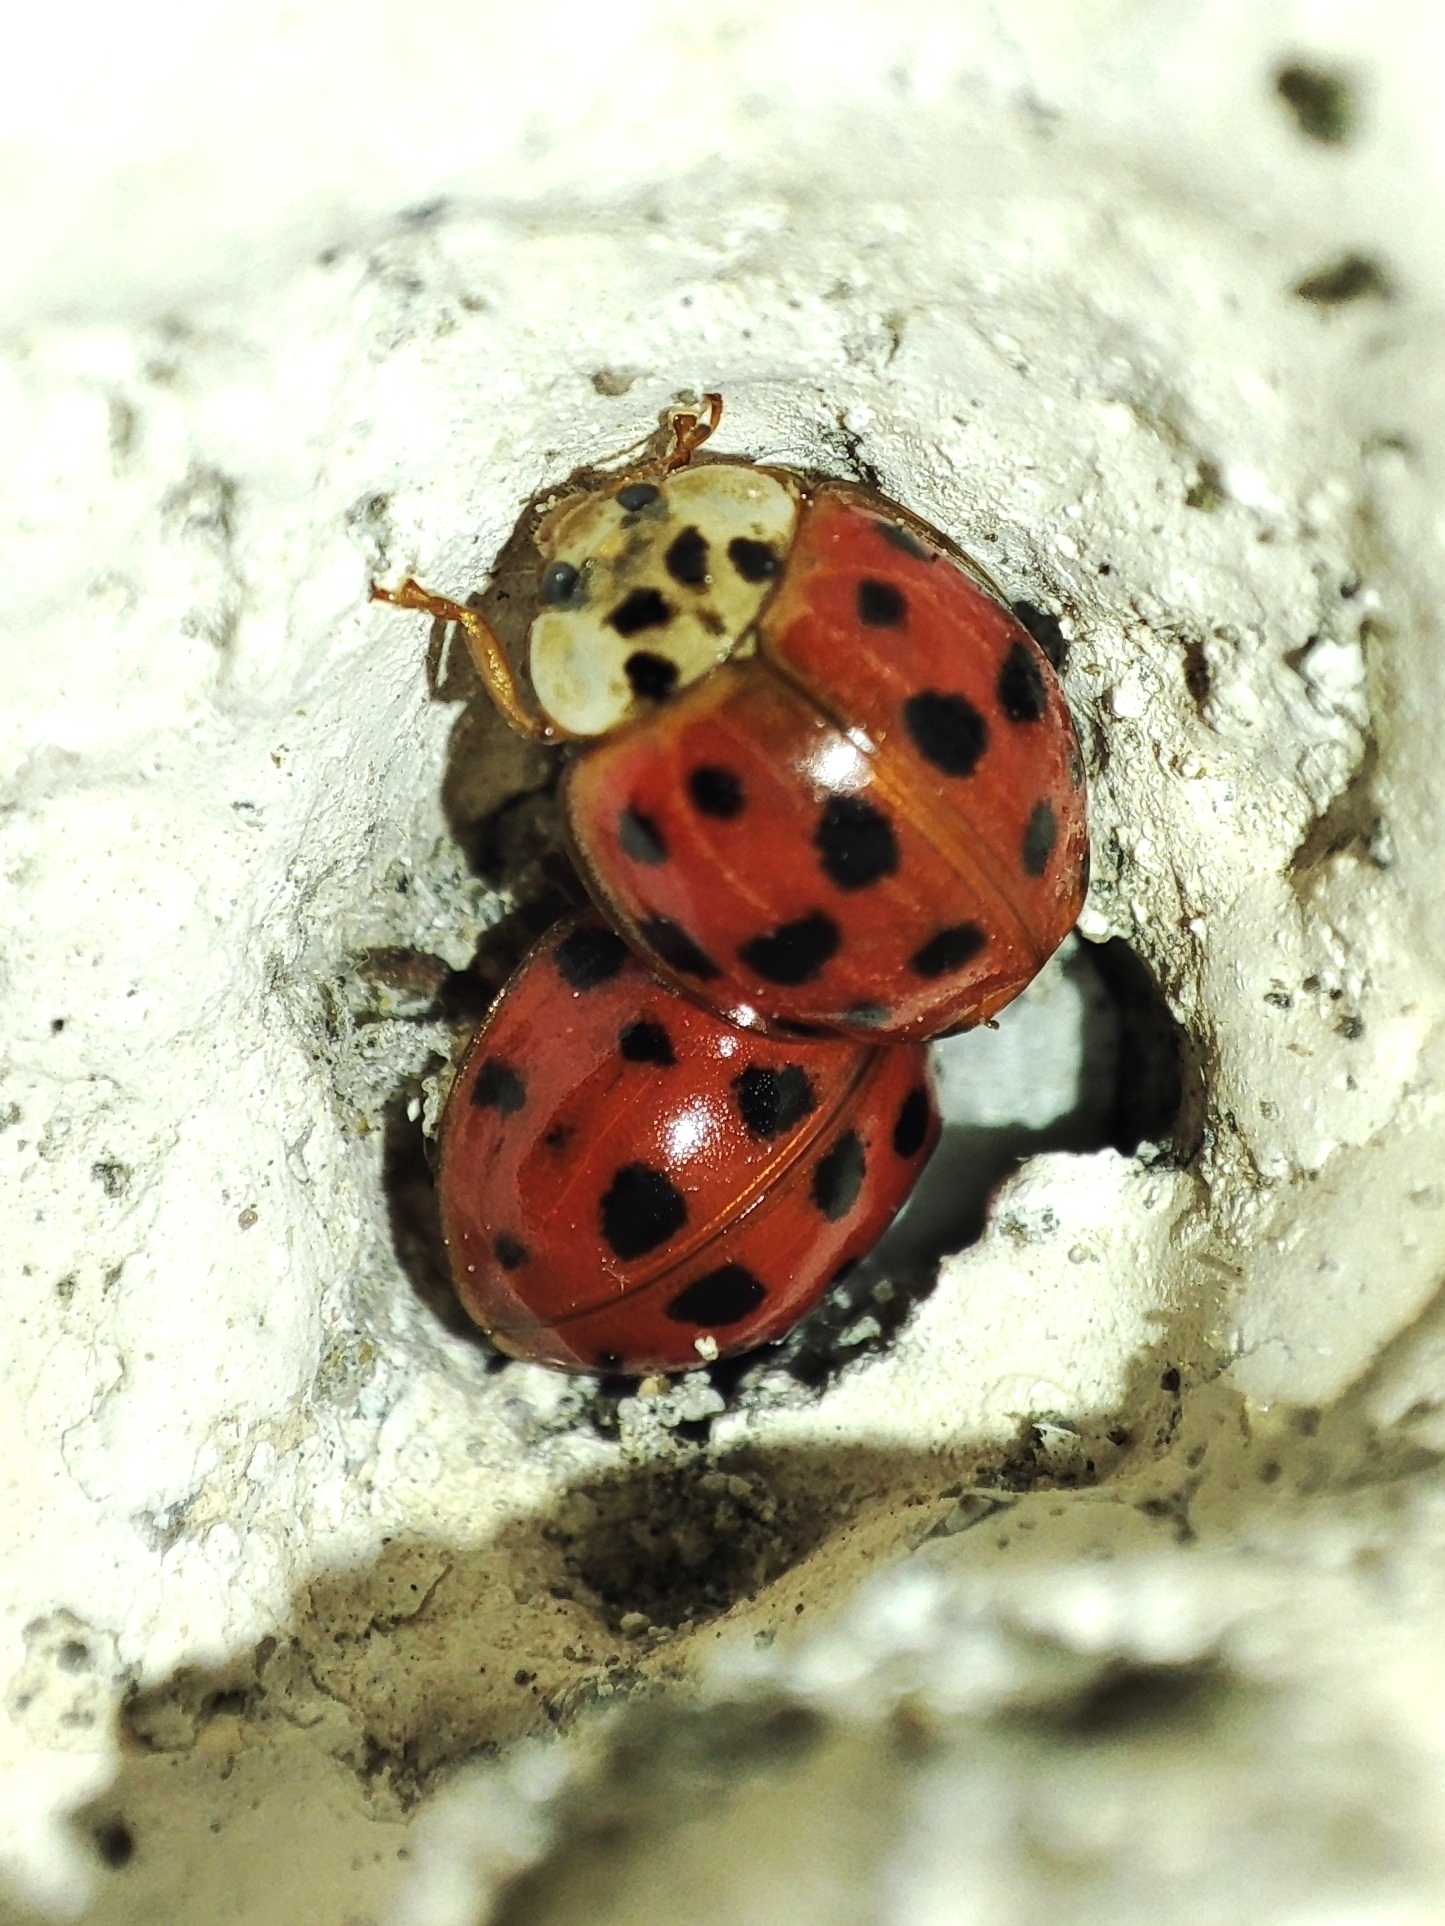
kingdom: Animalia
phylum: Arthropoda
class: Insecta
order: Coleoptera
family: Coccinellidae
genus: Harmonia
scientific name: Harmonia axyridis
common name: Harlequin ladybird
